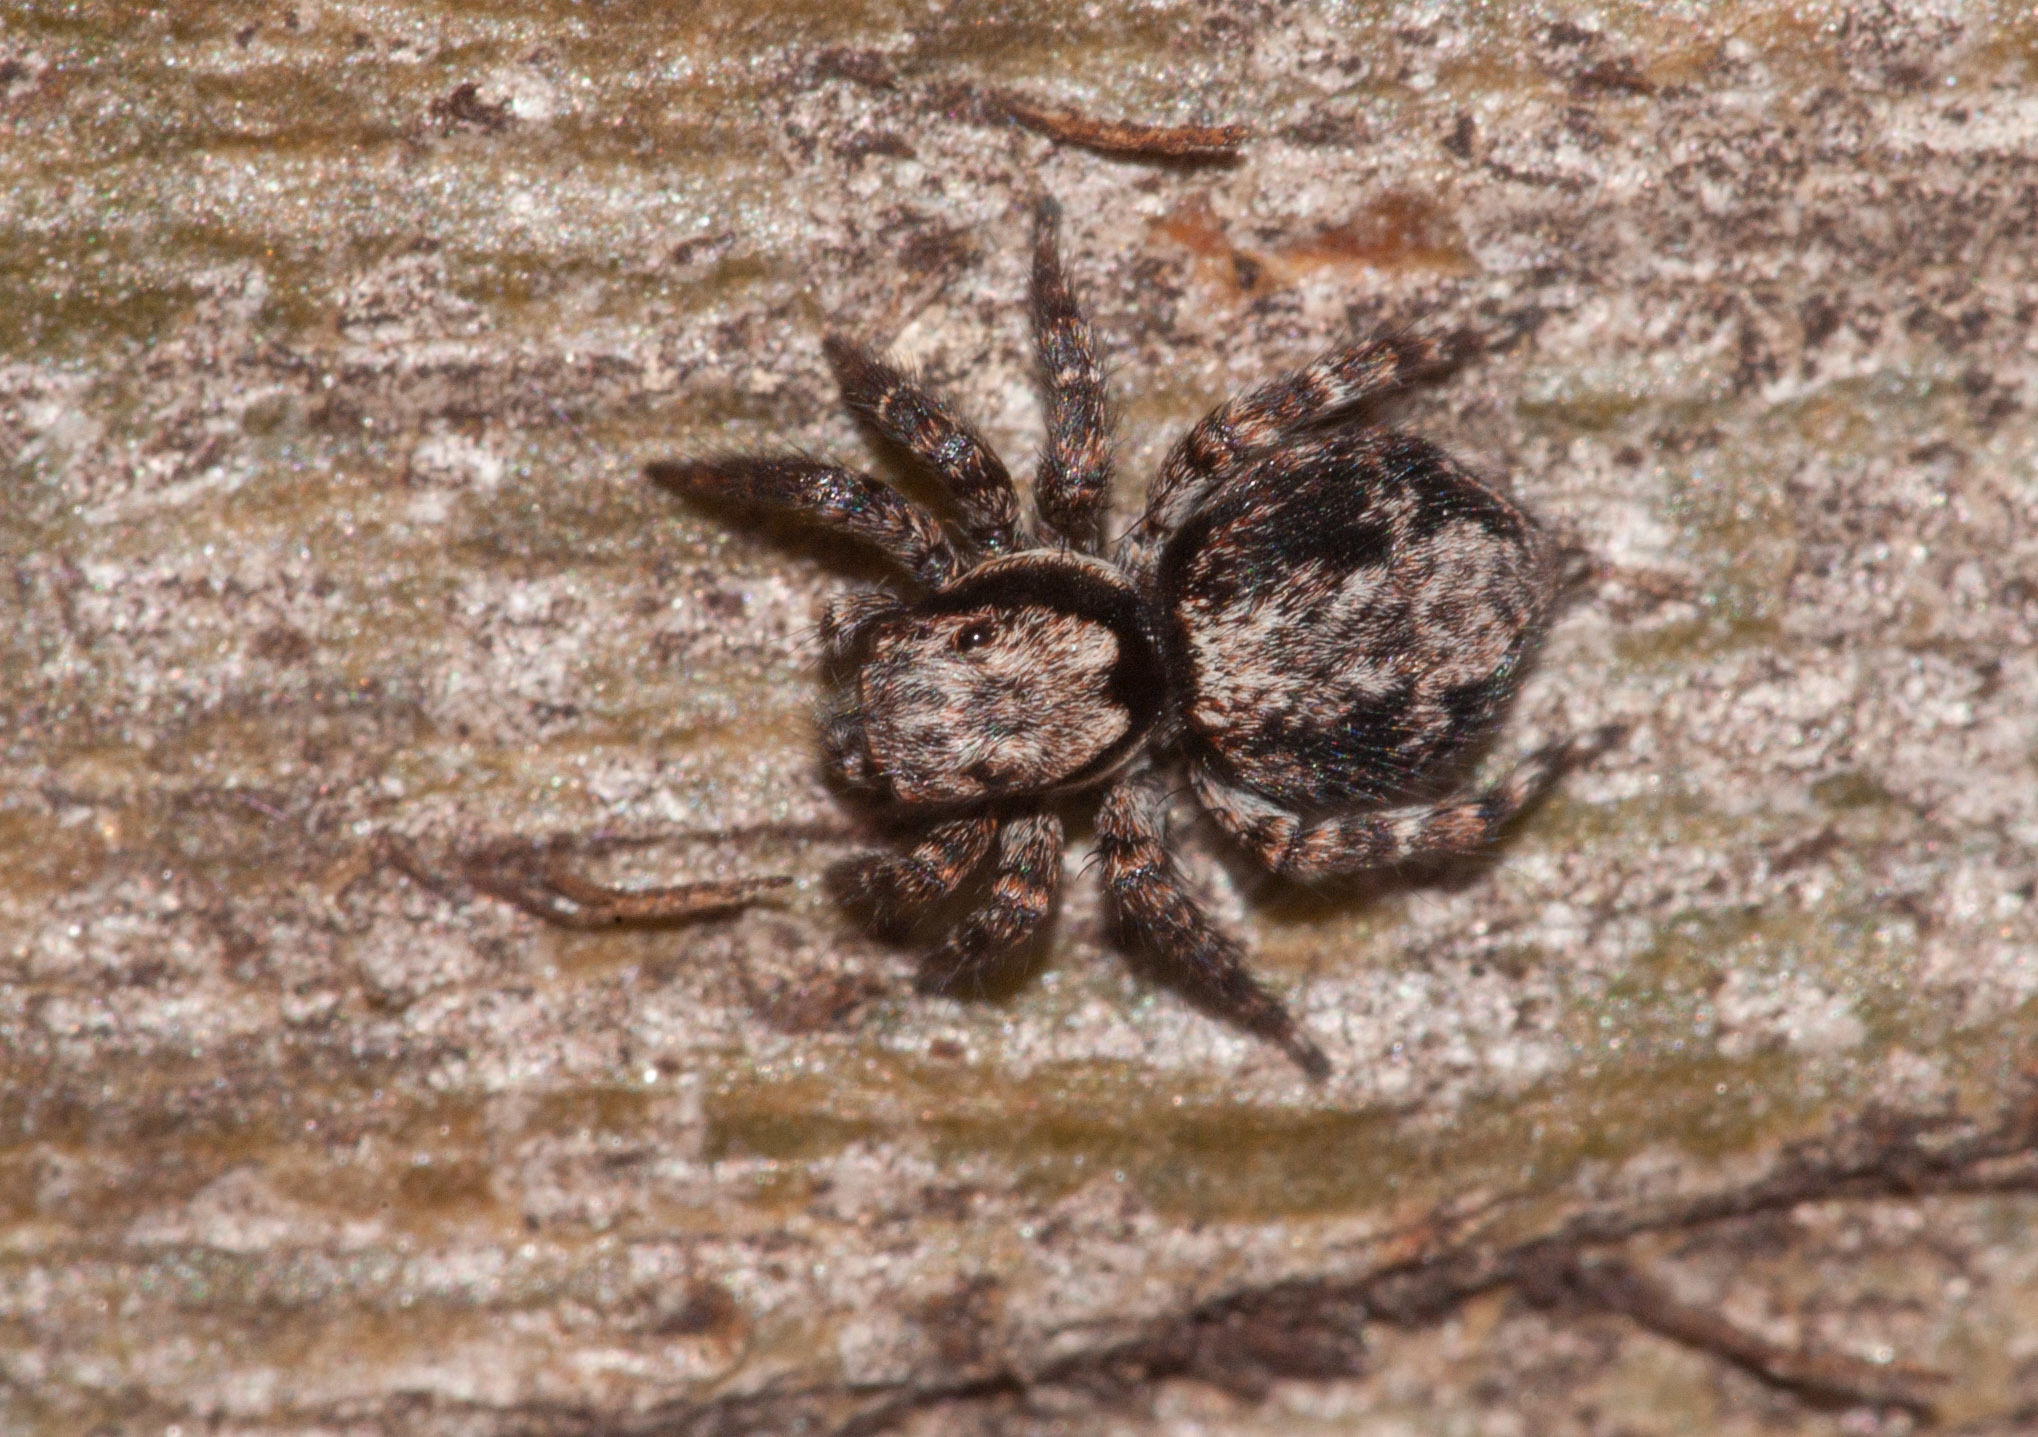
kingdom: Animalia
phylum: Arthropoda
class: Arachnida
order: Araneae
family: Salticidae
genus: Salpesia
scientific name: Salpesia squalida
